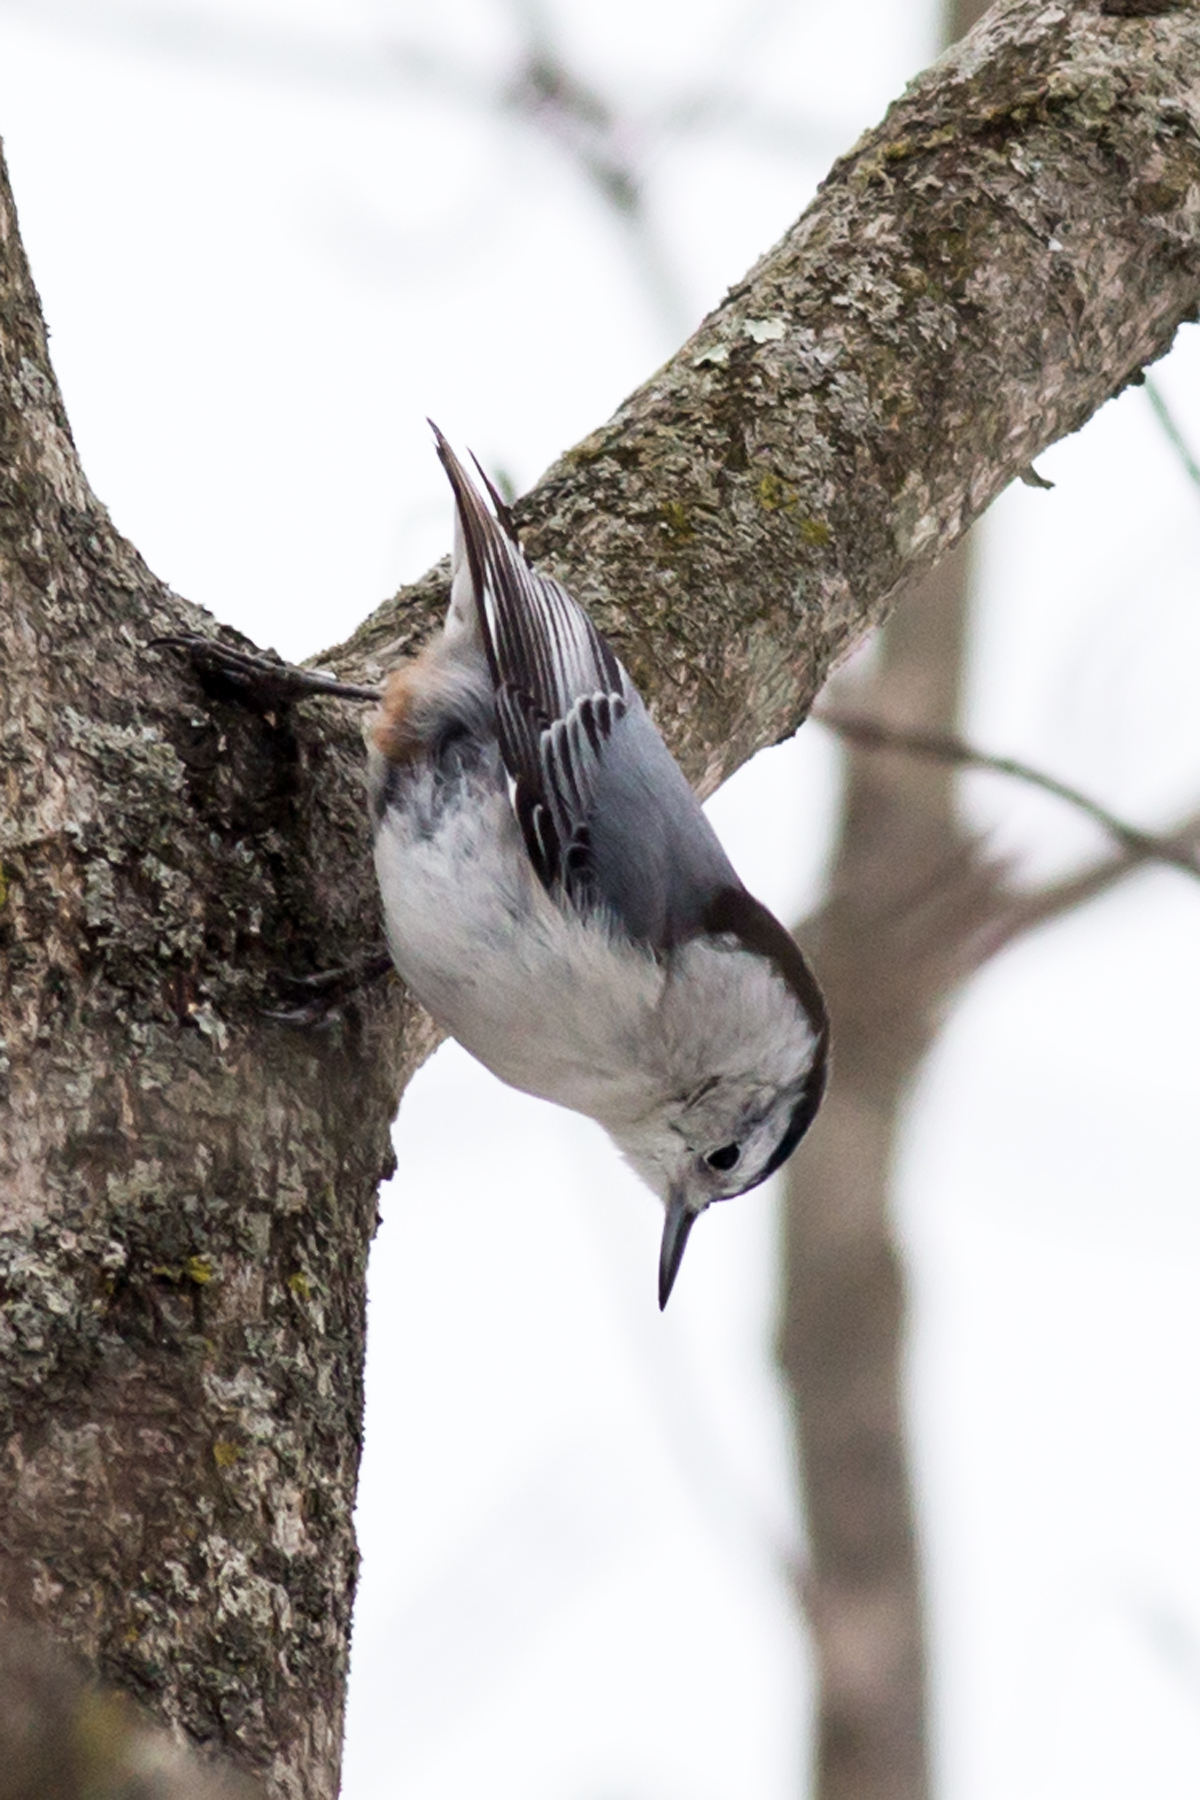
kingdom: Animalia
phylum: Chordata
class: Aves
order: Passeriformes
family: Sittidae
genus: Sitta
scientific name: Sitta carolinensis
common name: White-breasted nuthatch
